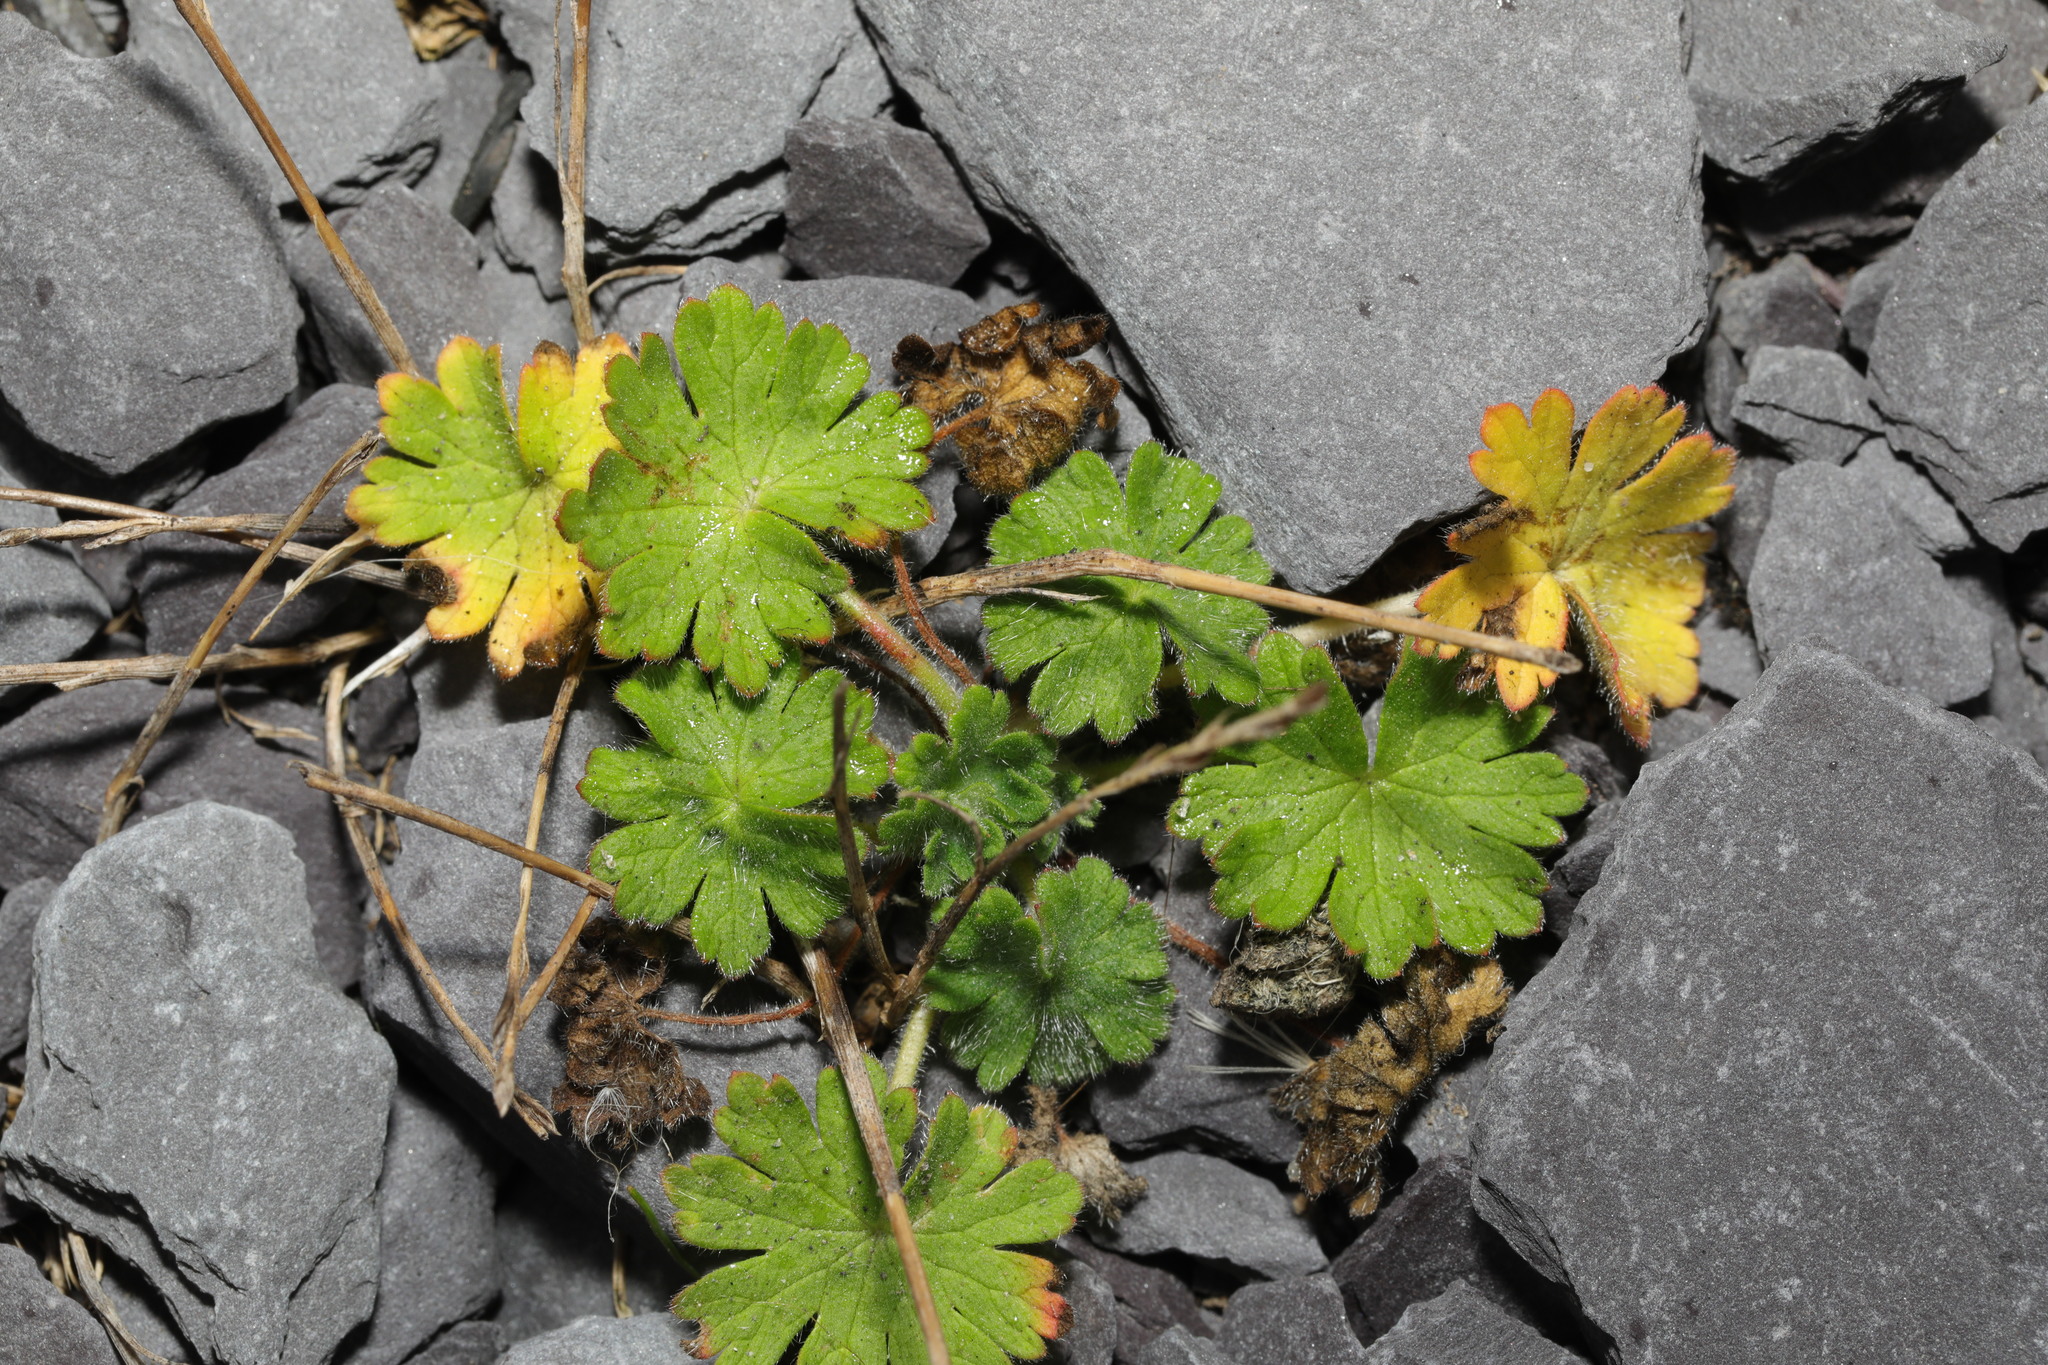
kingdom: Plantae
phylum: Tracheophyta
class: Magnoliopsida
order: Geraniales
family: Geraniaceae
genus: Geranium
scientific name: Geranium molle
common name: Dove's-foot crane's-bill
